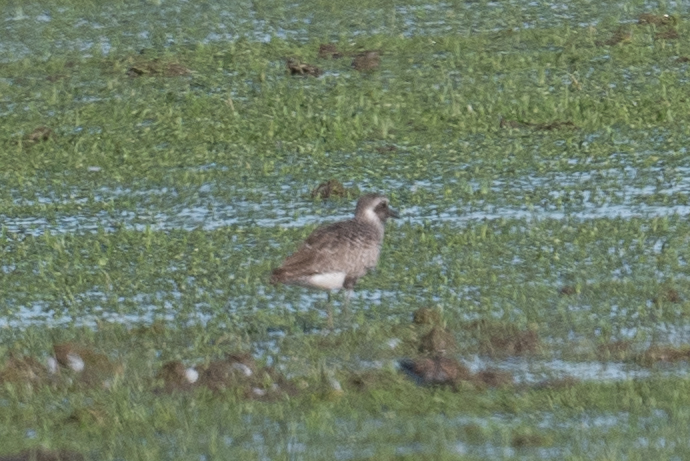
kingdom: Animalia
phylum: Chordata
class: Aves
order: Charadriiformes
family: Charadriidae
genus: Pluvialis
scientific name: Pluvialis squatarola
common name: Grey plover
